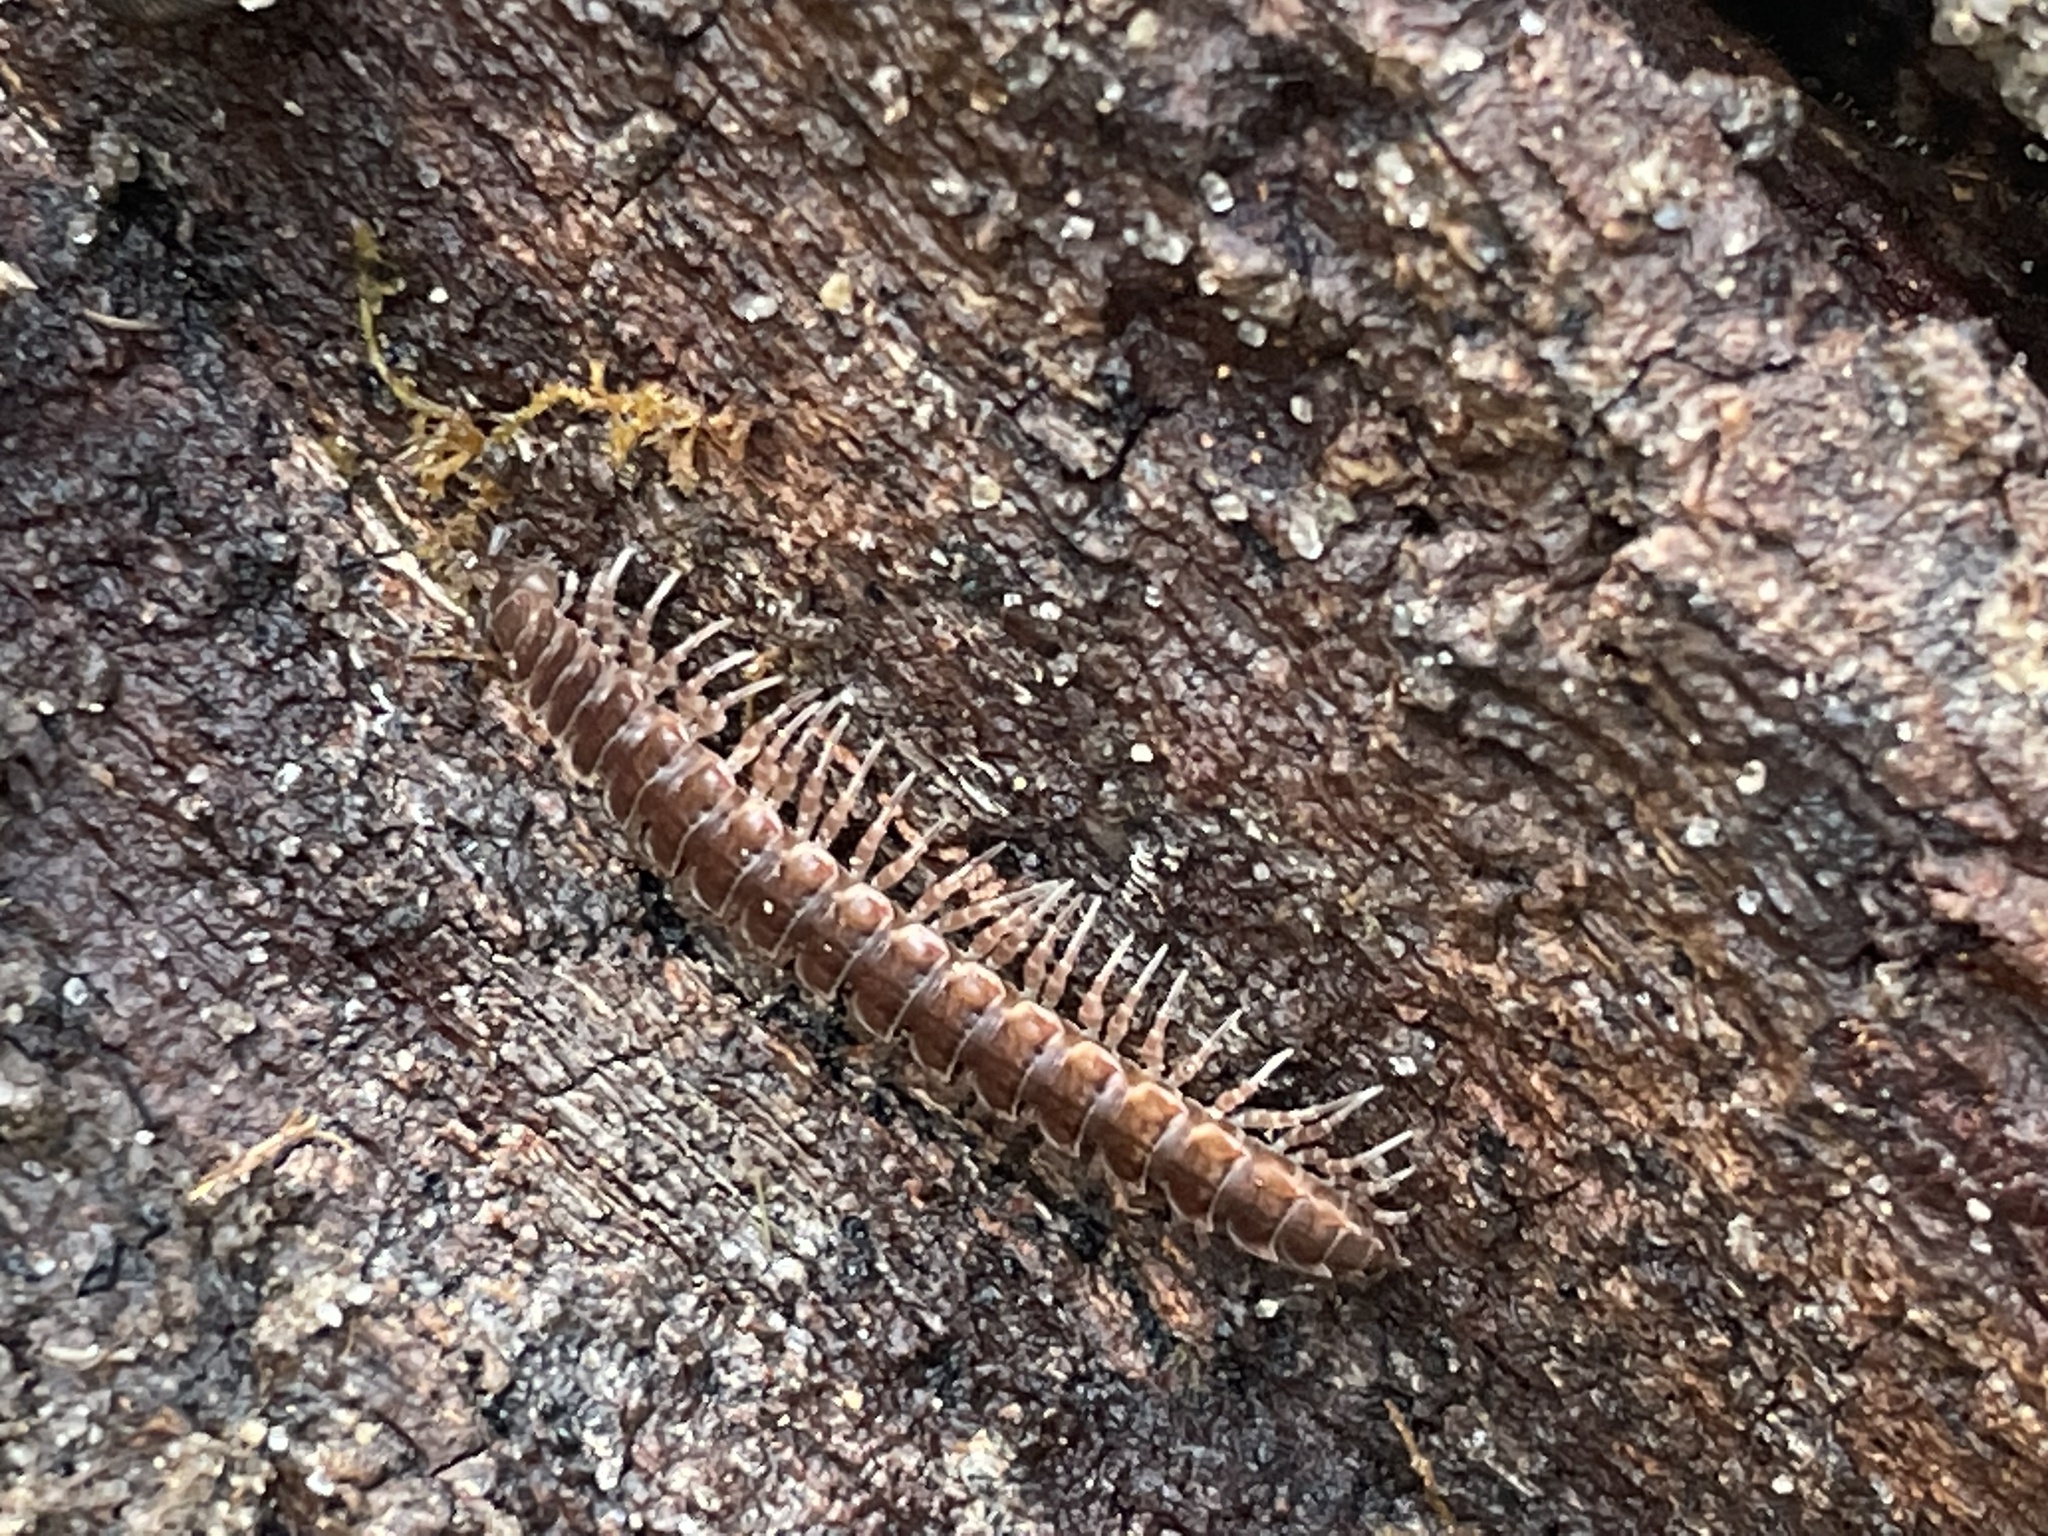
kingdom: Animalia
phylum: Arthropoda
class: Diplopoda
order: Polydesmida
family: Polydesmidae
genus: Pseudopolydesmus
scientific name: Pseudopolydesmus serratus
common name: Common pink flat-back millipede
